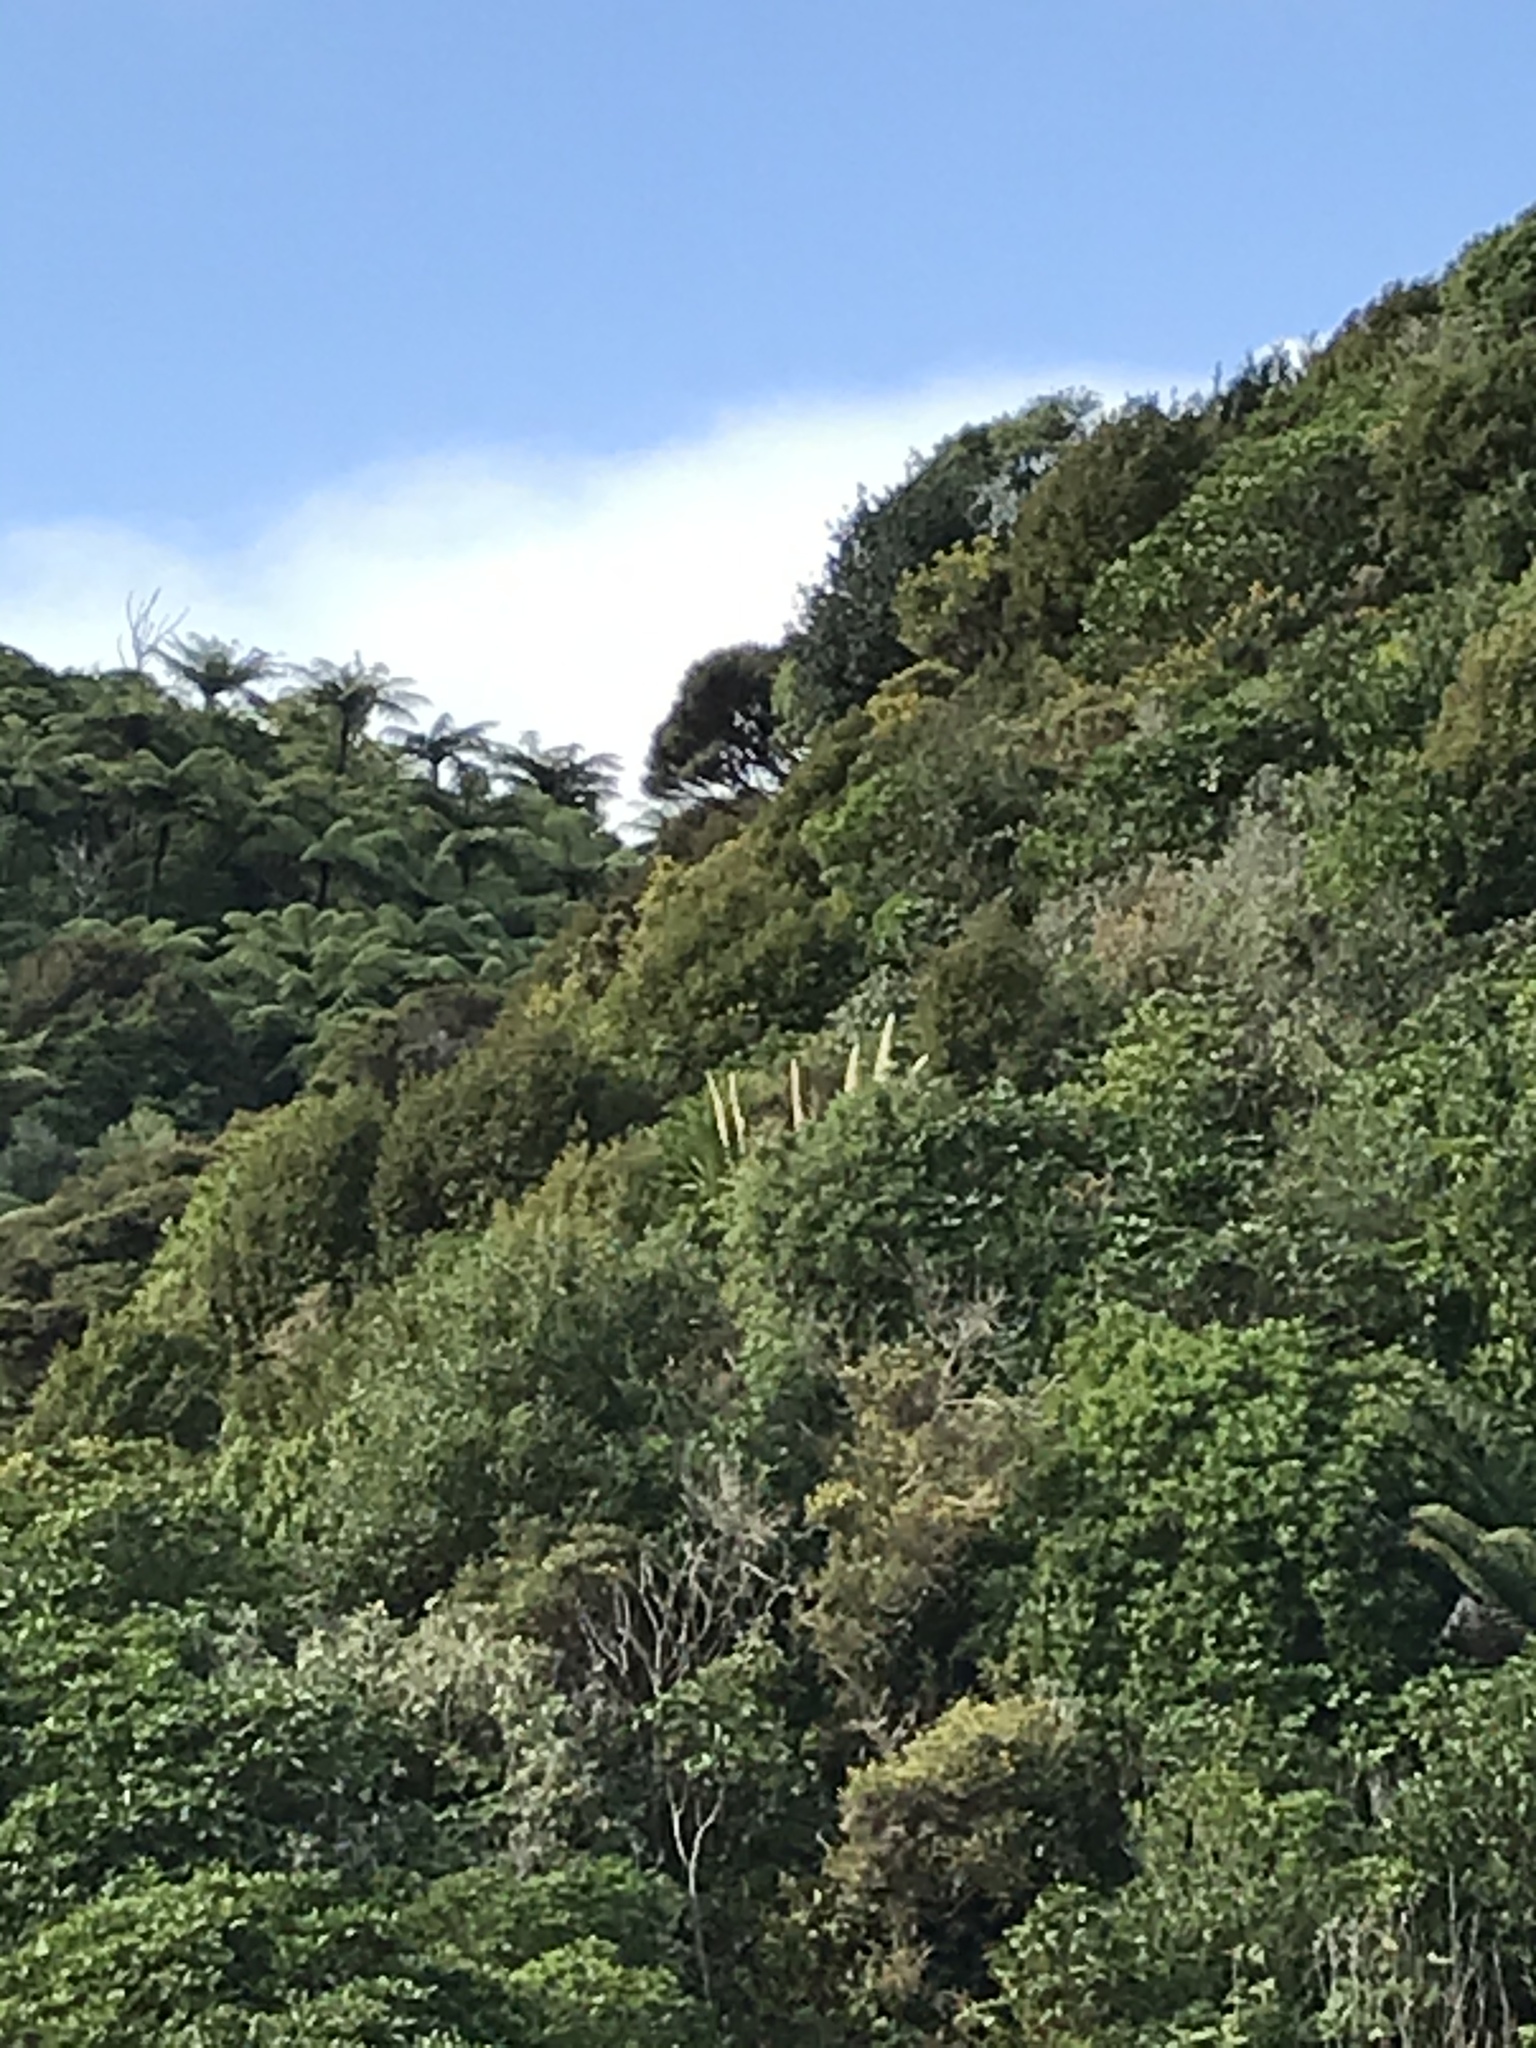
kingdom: Plantae
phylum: Tracheophyta
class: Liliopsida
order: Poales
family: Poaceae
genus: Cortaderia
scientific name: Cortaderia selloana
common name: Uruguayan pampas grass
